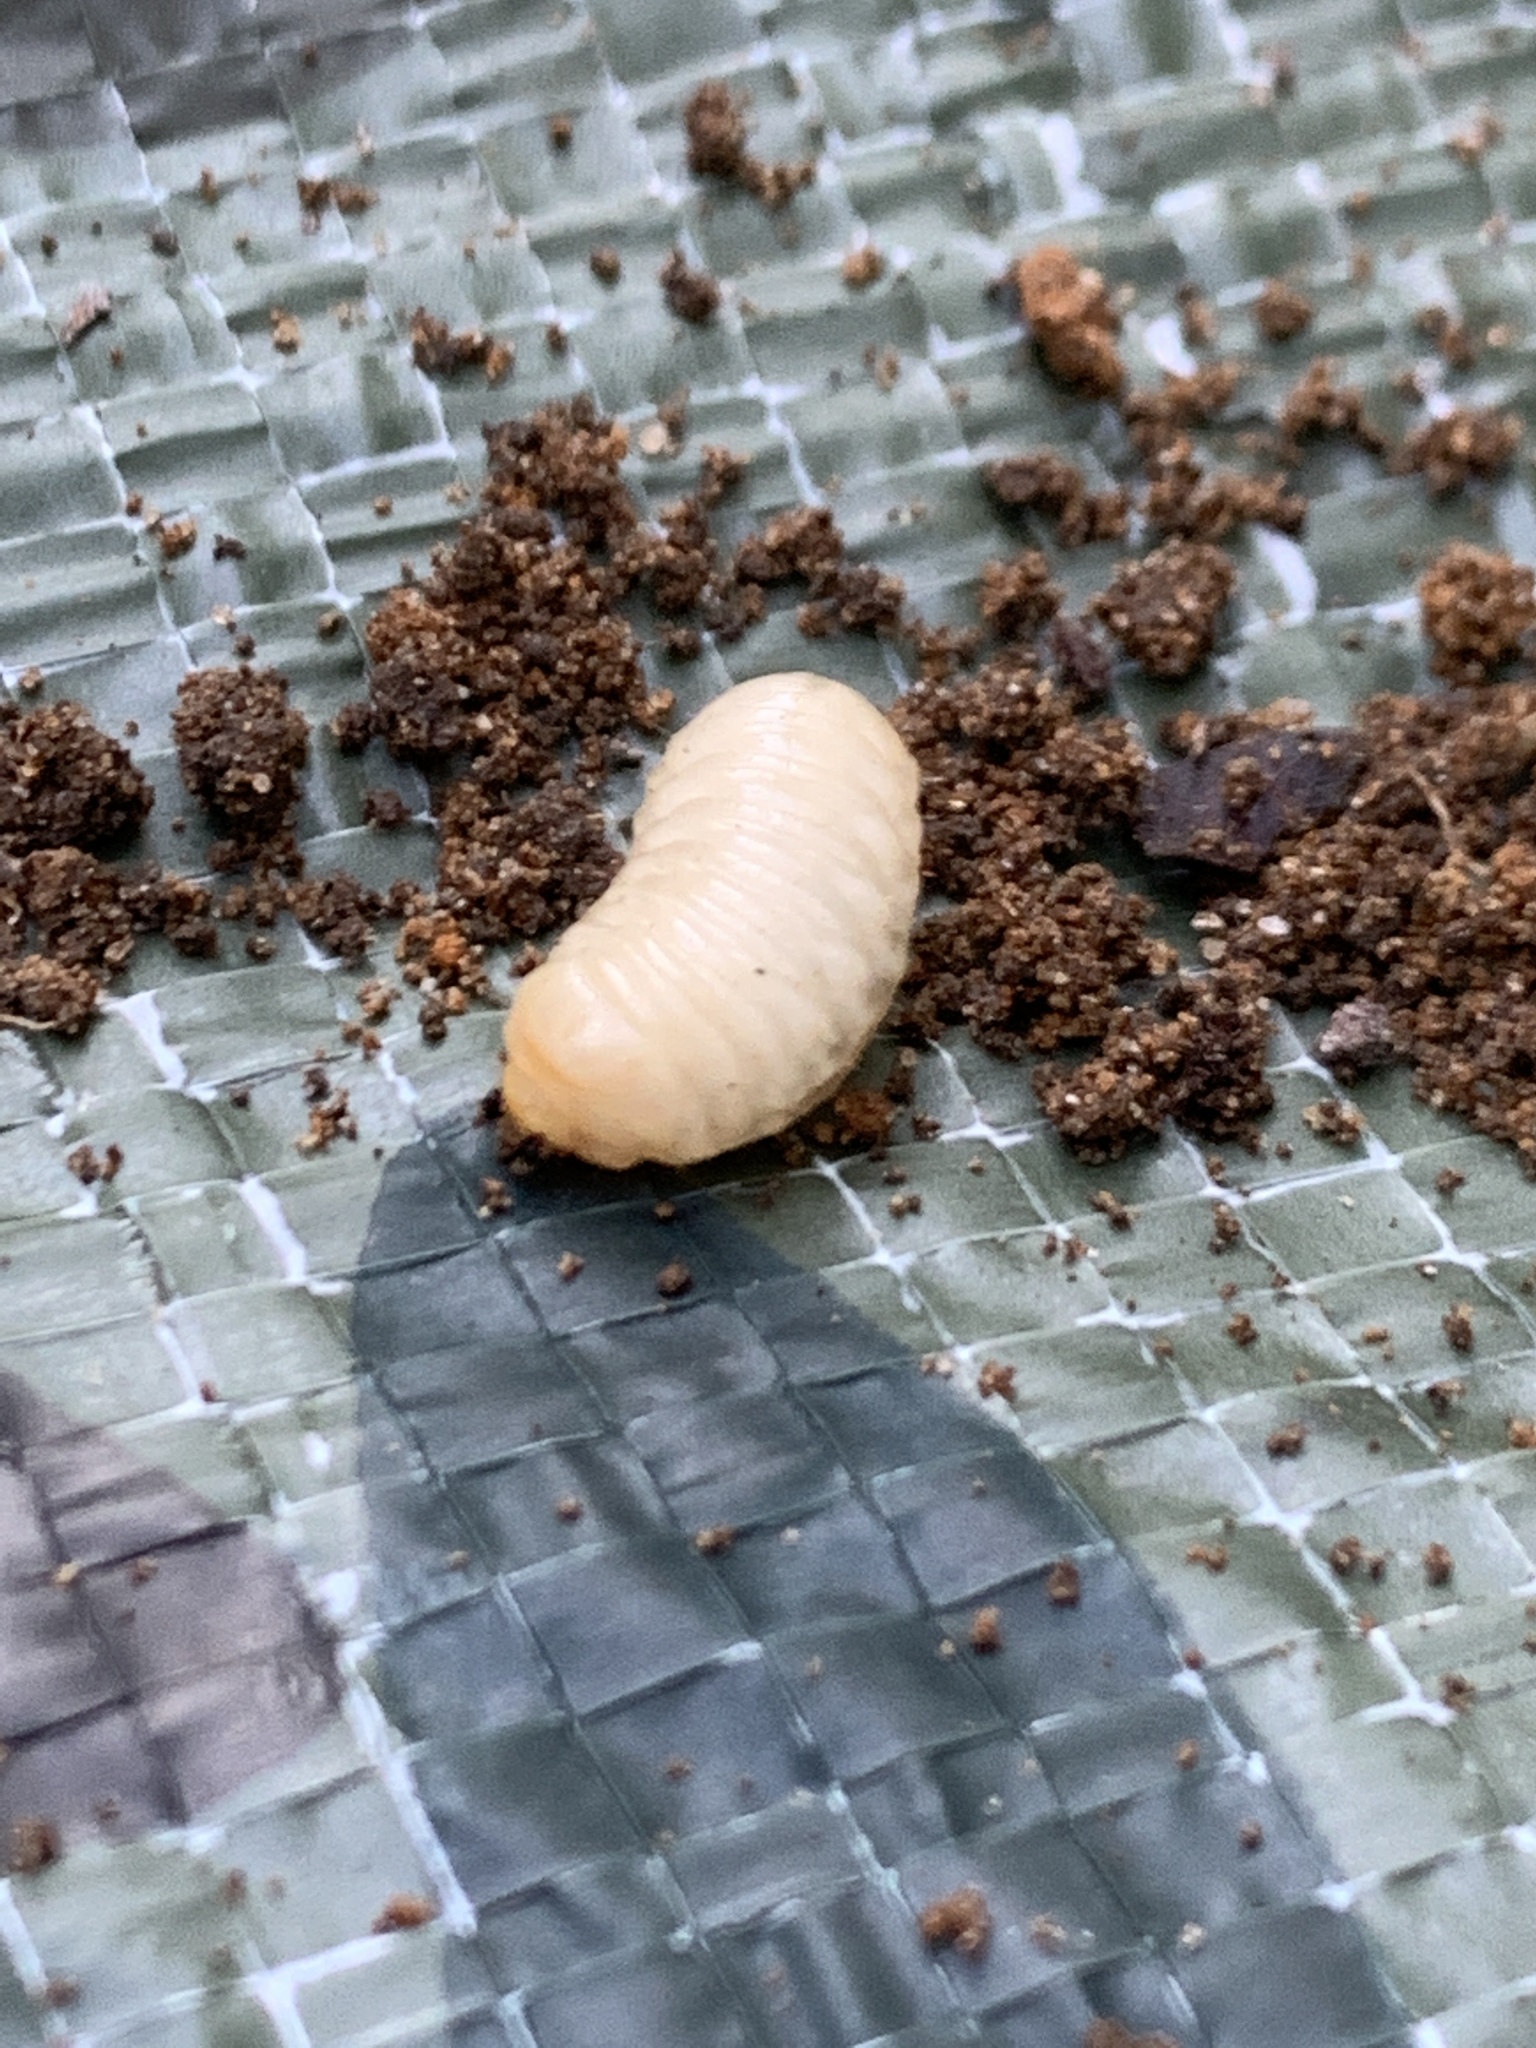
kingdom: Animalia
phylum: Arthropoda
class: Insecta
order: Lepidoptera
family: Sesiidae
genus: Eichlinia
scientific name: Eichlinia cucurbitae
